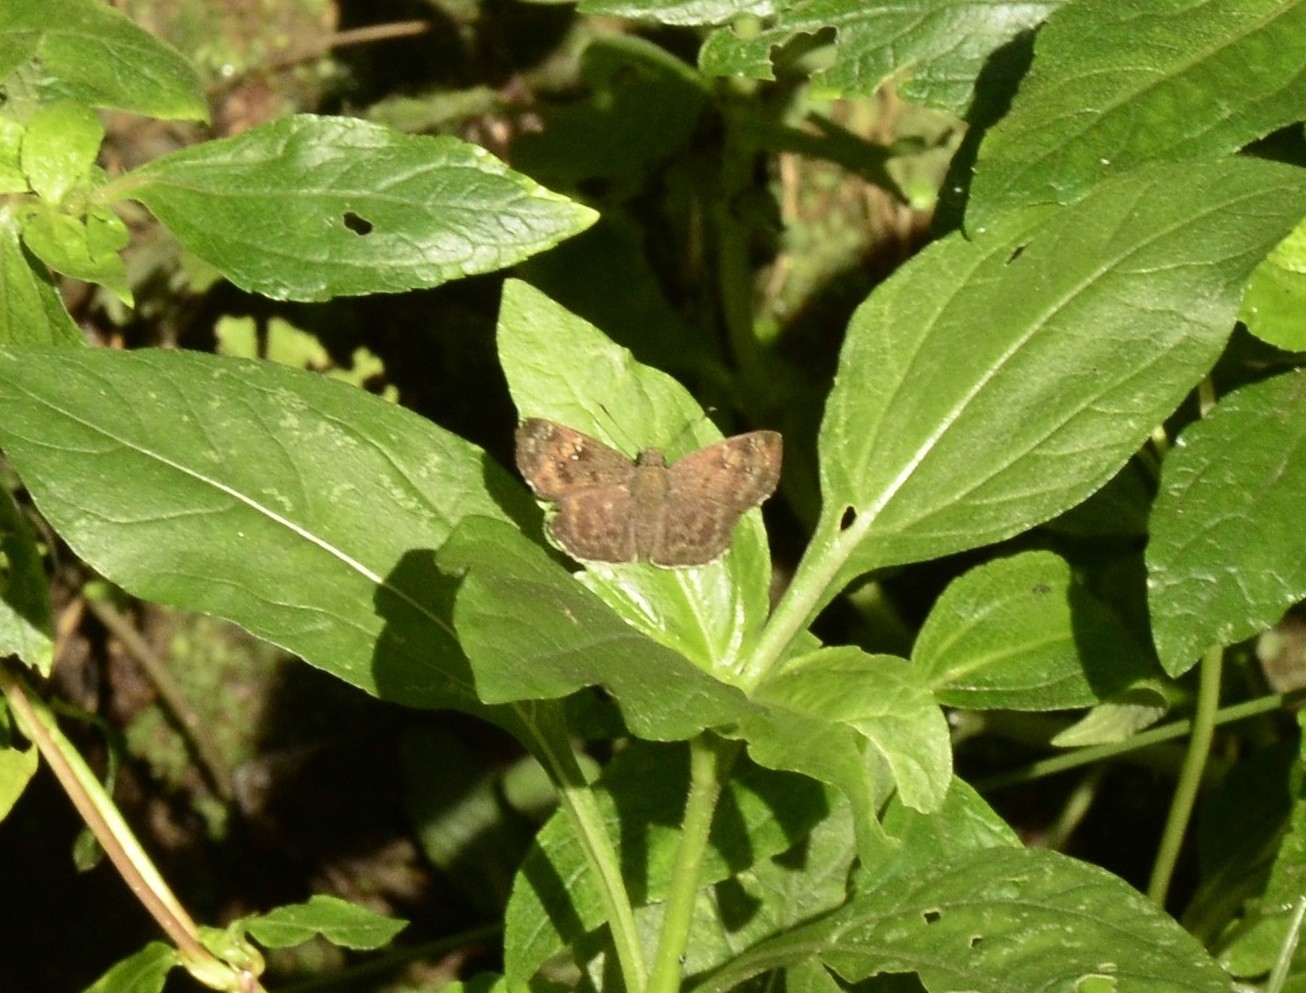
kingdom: Animalia
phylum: Arthropoda
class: Insecta
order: Lepidoptera
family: Hesperiidae
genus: Sarangesa
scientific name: Sarangesa dasahara
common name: Common small flat
